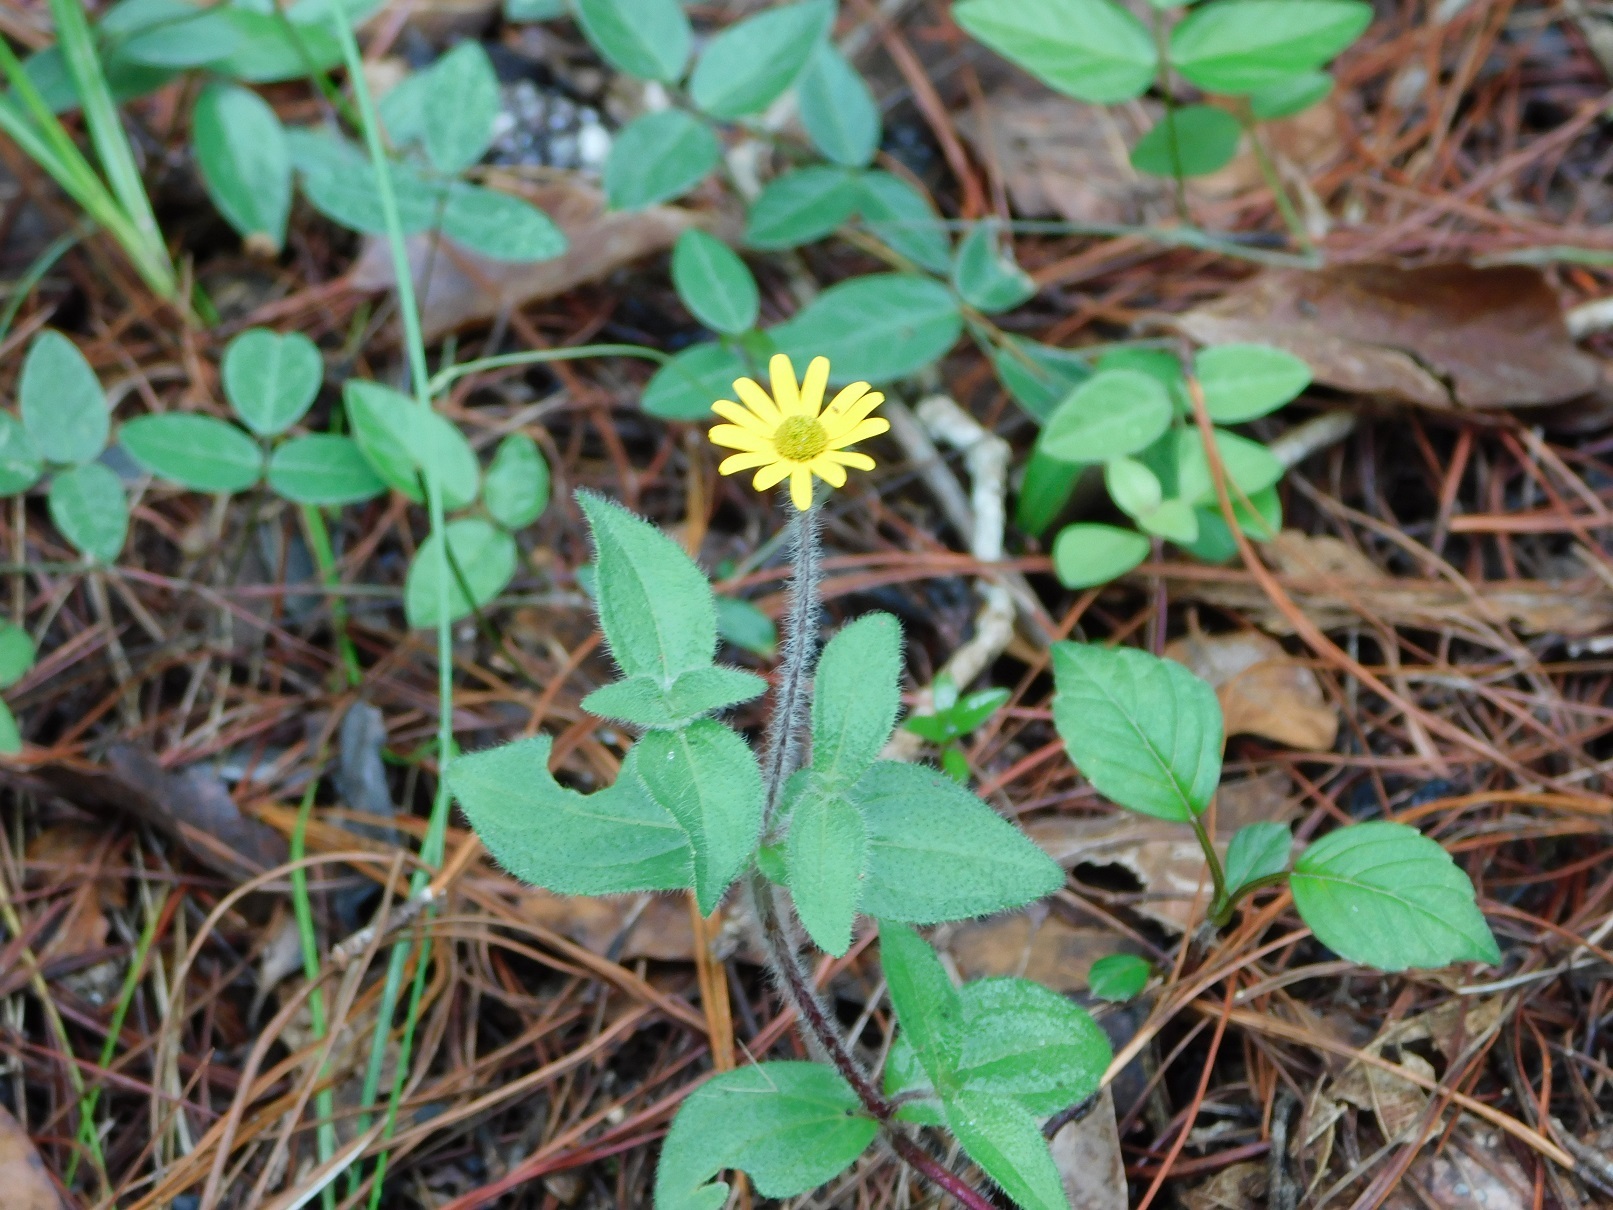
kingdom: Plantae
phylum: Tracheophyta
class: Magnoliopsida
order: Asterales
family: Asteraceae
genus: Melampodium
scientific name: Melampodium montanum
